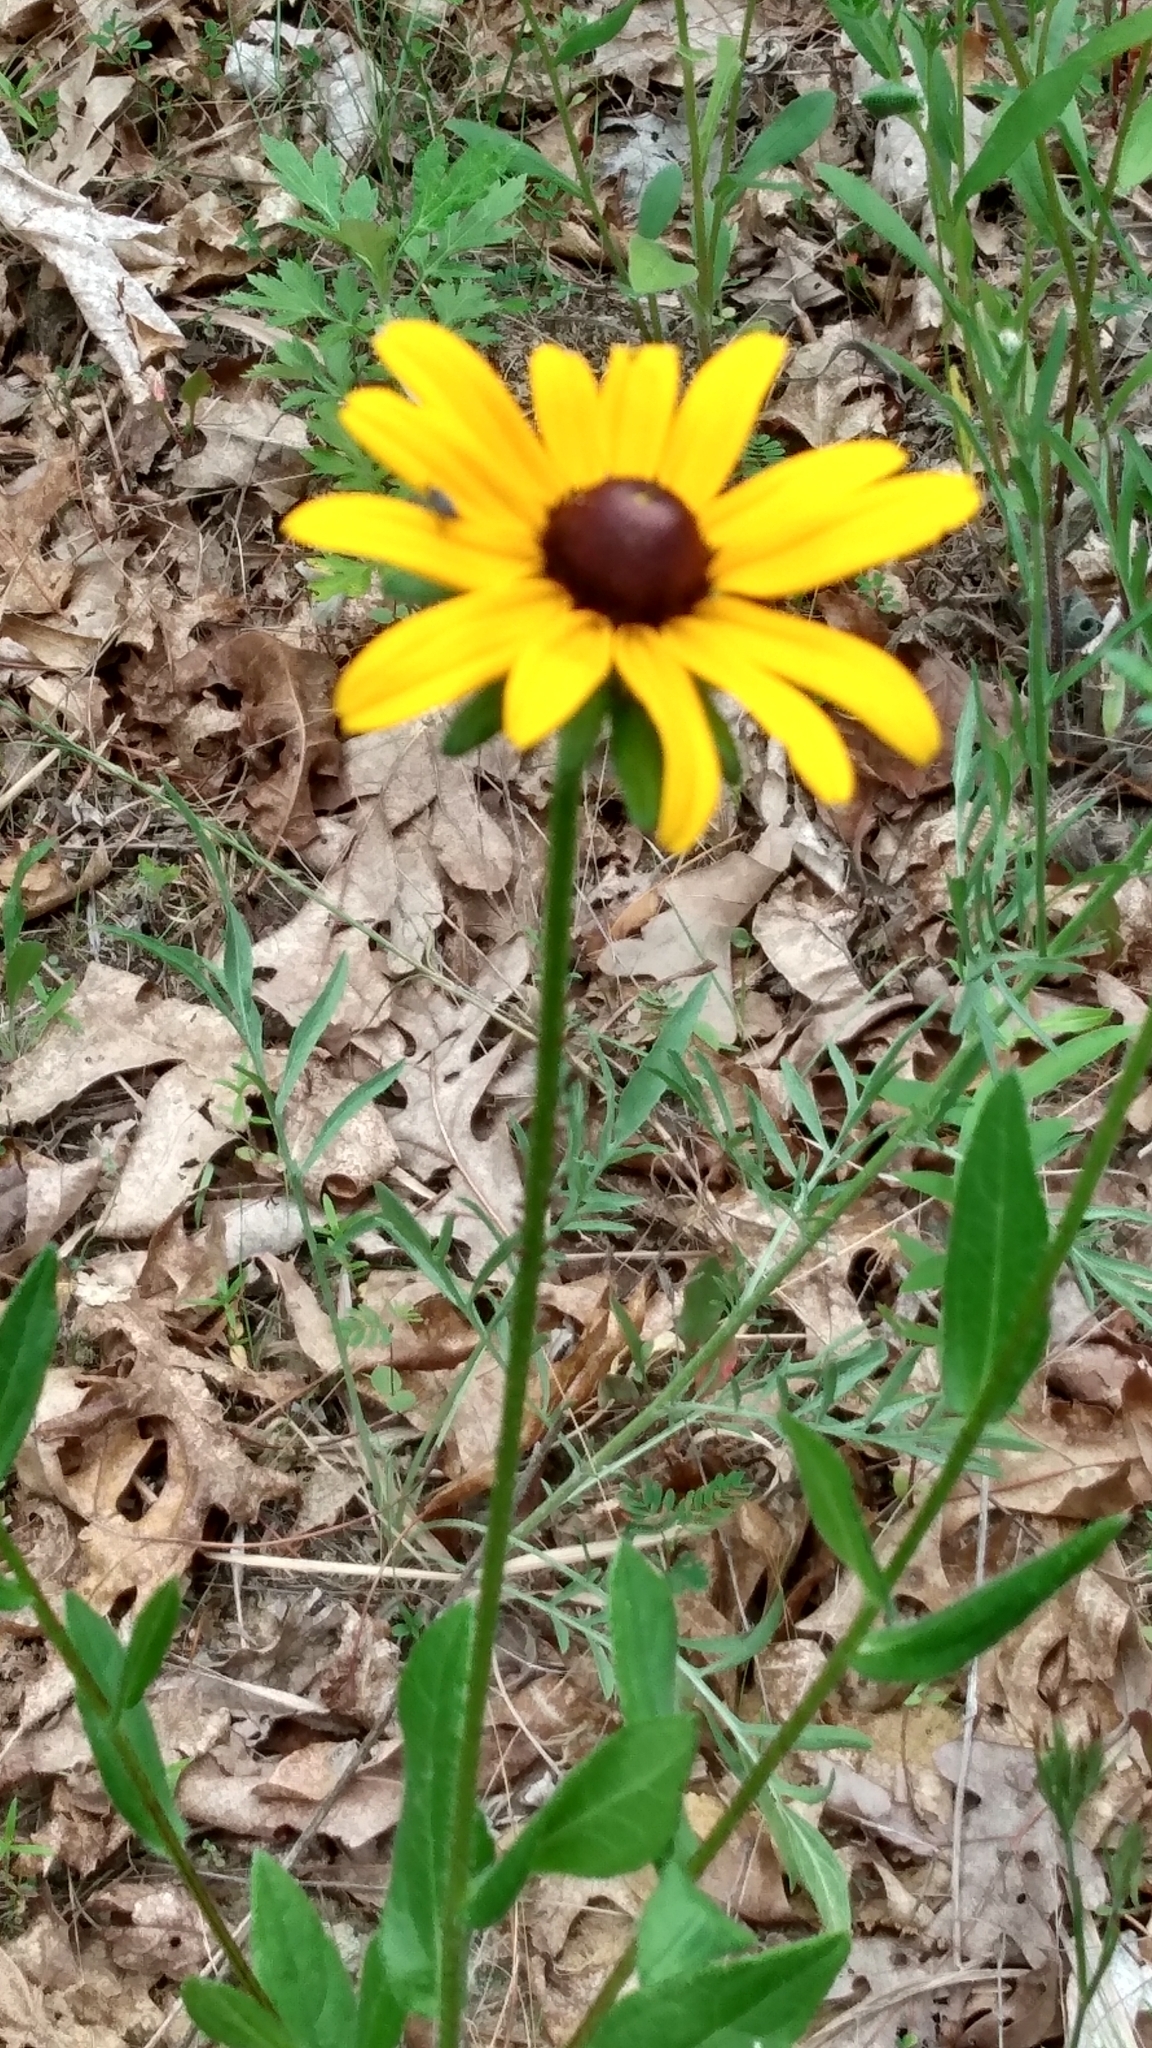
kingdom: Plantae
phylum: Tracheophyta
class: Magnoliopsida
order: Asterales
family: Asteraceae
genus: Rudbeckia
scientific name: Rudbeckia hirta
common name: Black-eyed-susan
